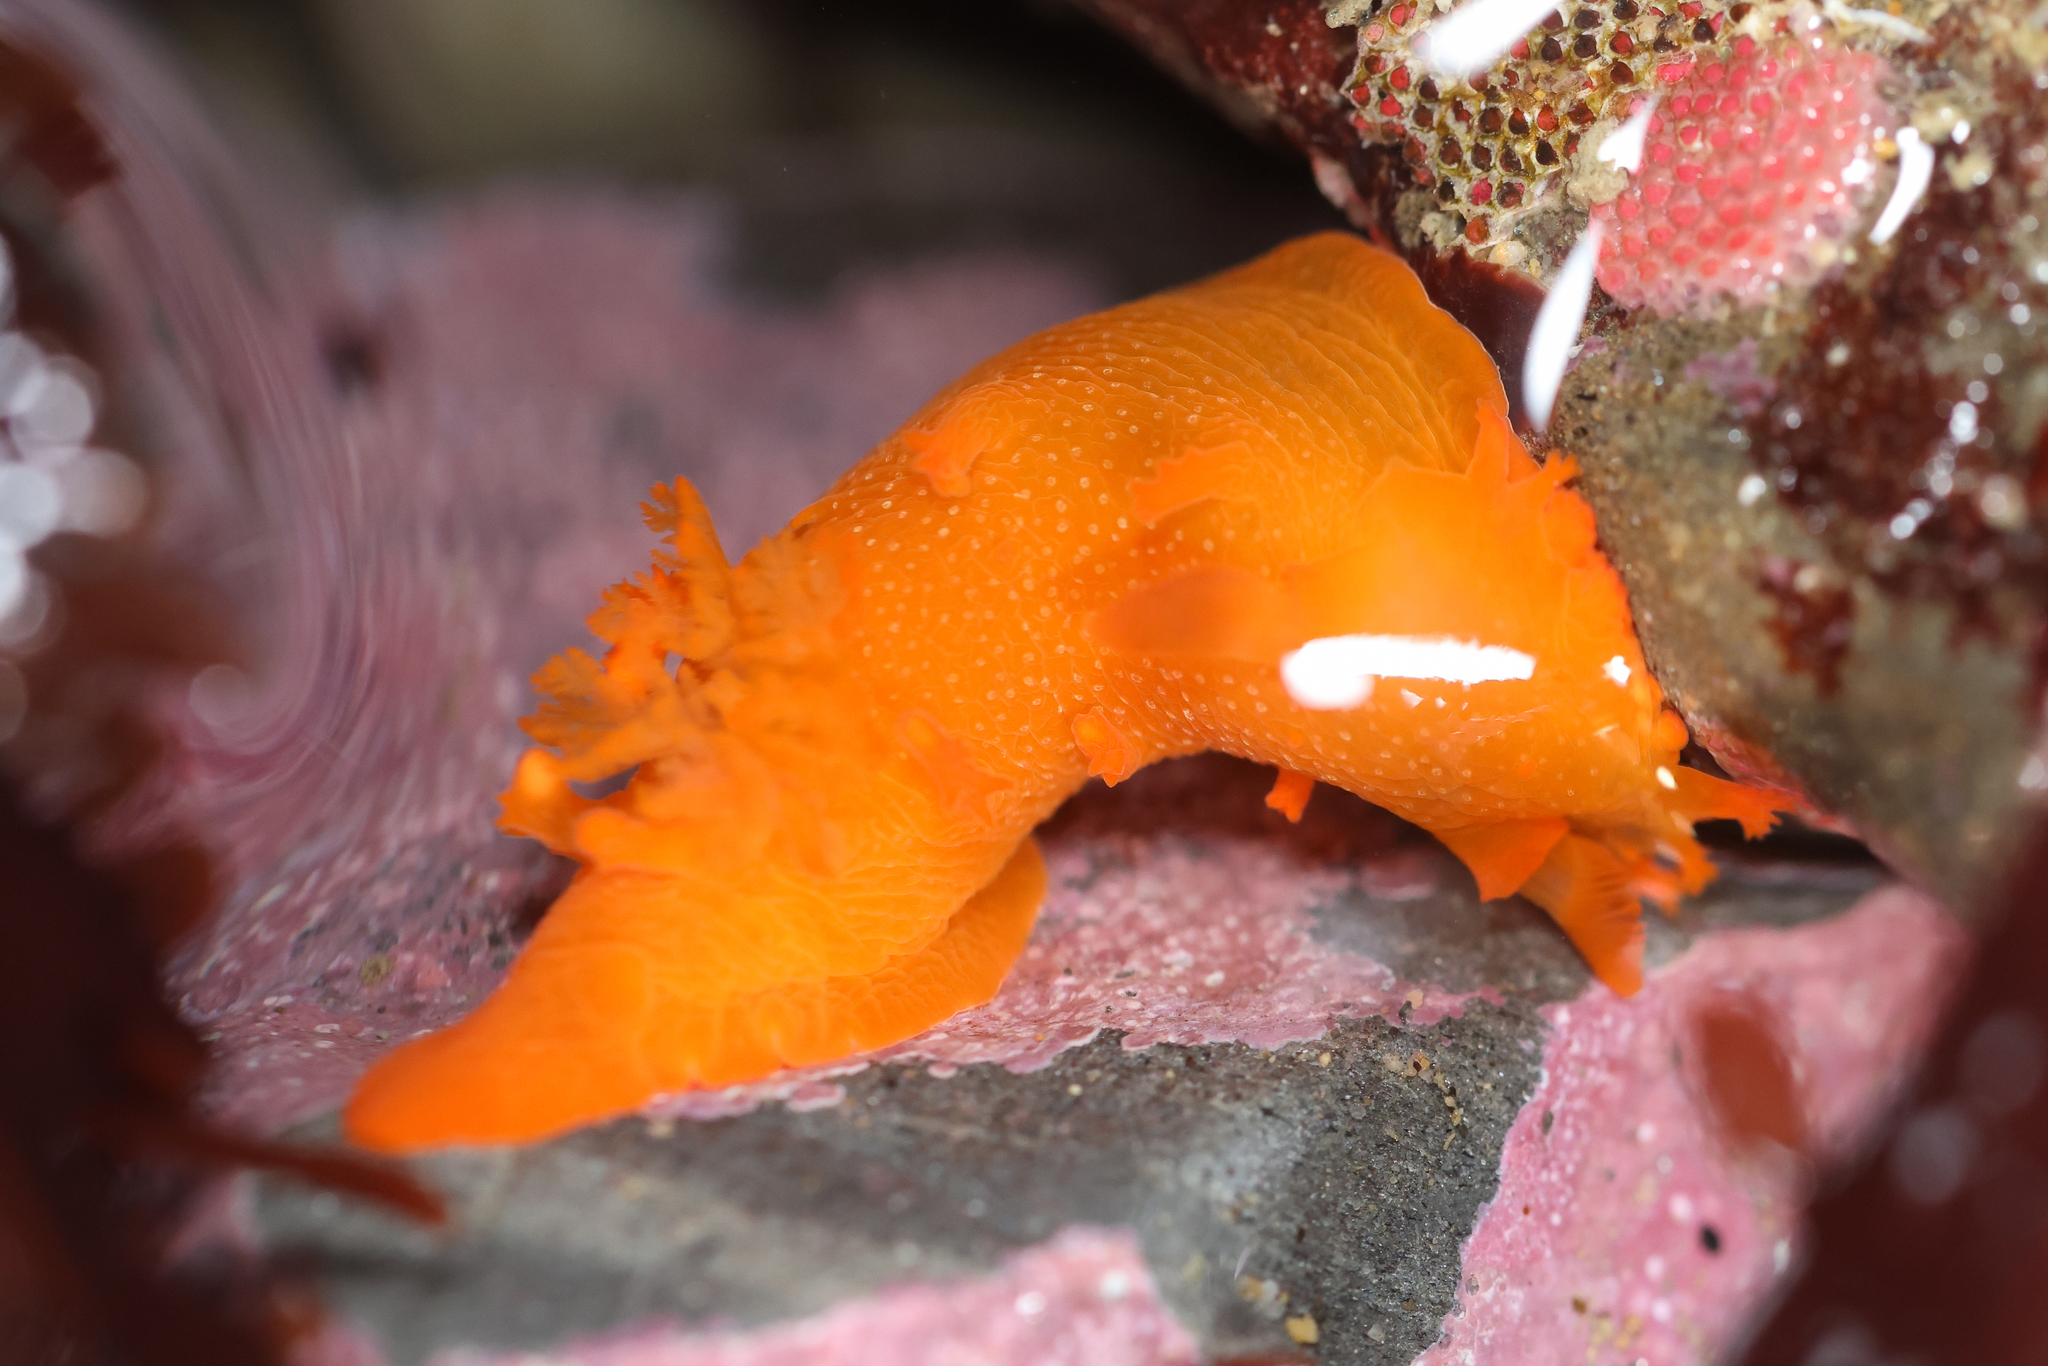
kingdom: Animalia
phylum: Mollusca
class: Gastropoda
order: Nudibranchia
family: Polyceridae
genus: Triopha
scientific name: Triopha maculata
